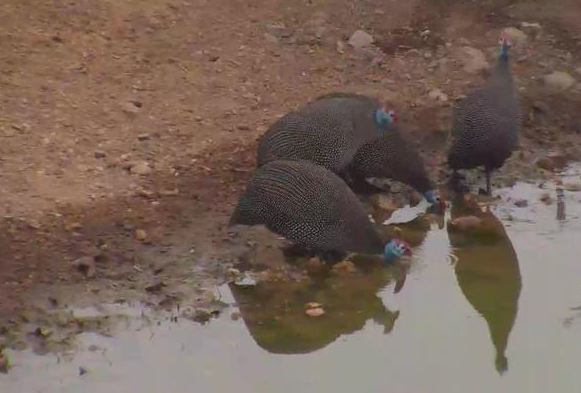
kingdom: Animalia
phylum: Chordata
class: Aves
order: Galliformes
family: Numididae
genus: Numida
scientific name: Numida meleagris
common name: Helmeted guineafowl
